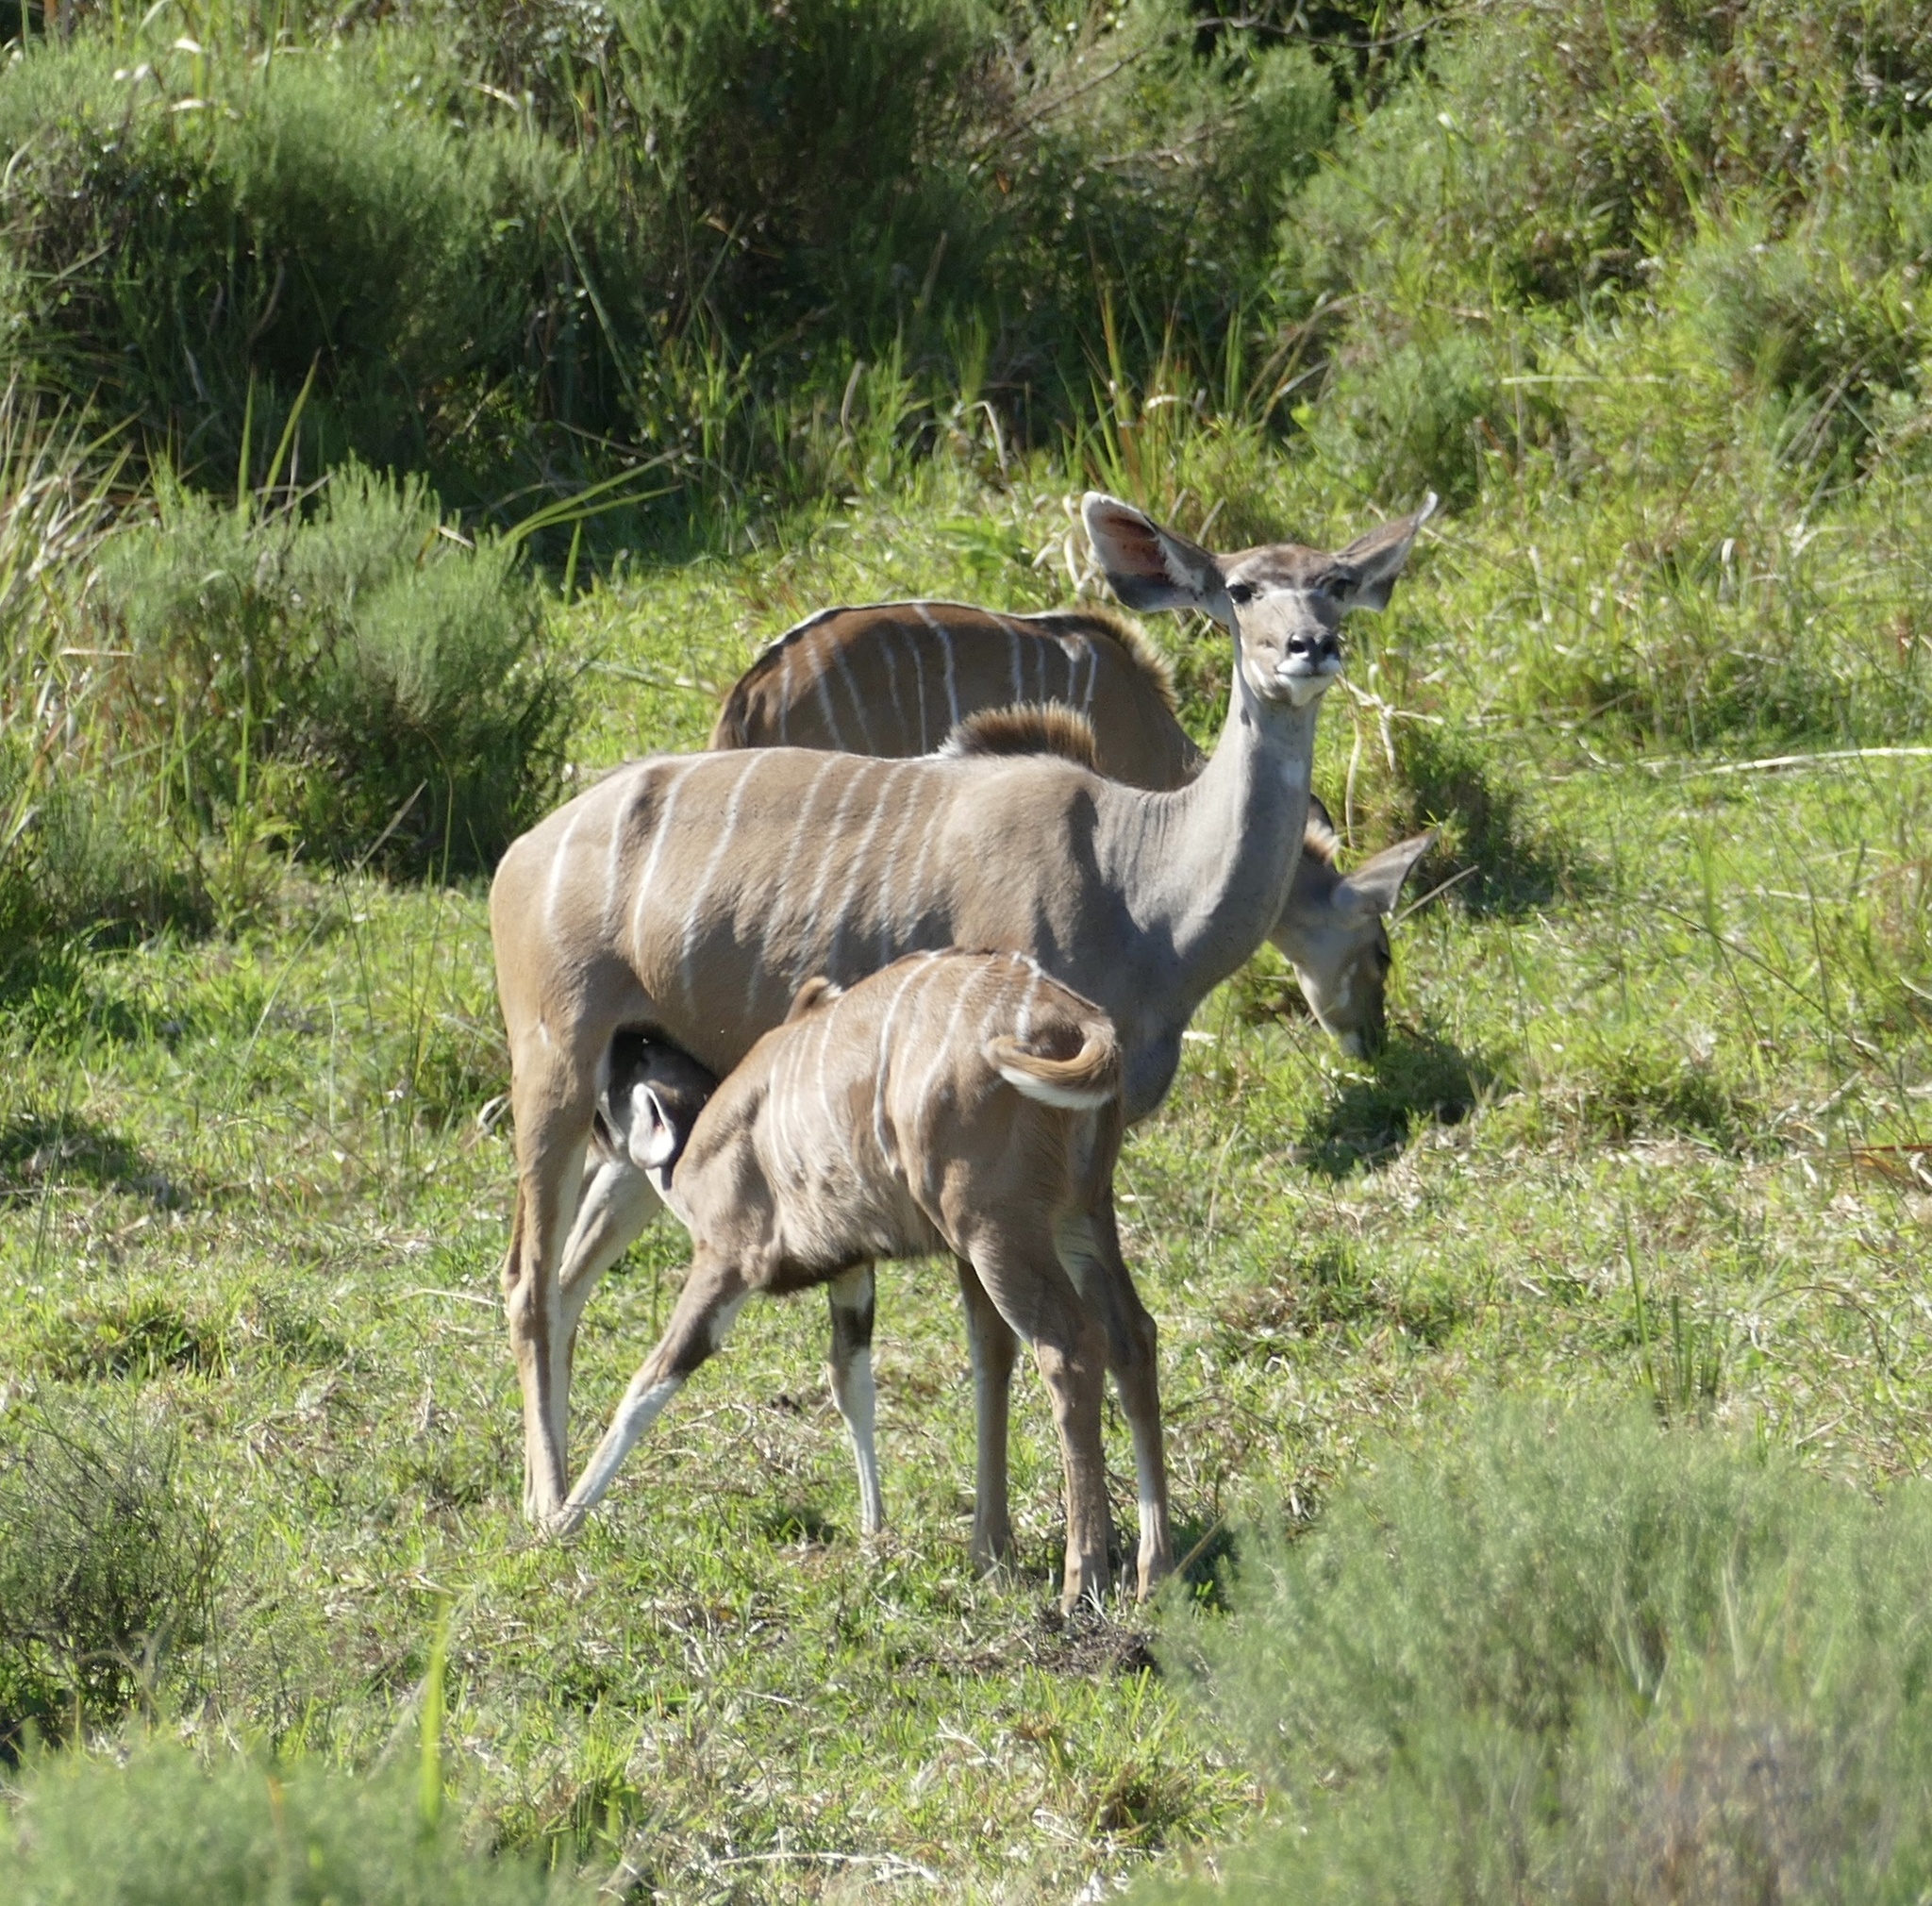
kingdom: Animalia
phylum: Chordata
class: Mammalia
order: Artiodactyla
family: Bovidae
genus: Tragelaphus
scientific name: Tragelaphus strepsiceros
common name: Greater kudu
